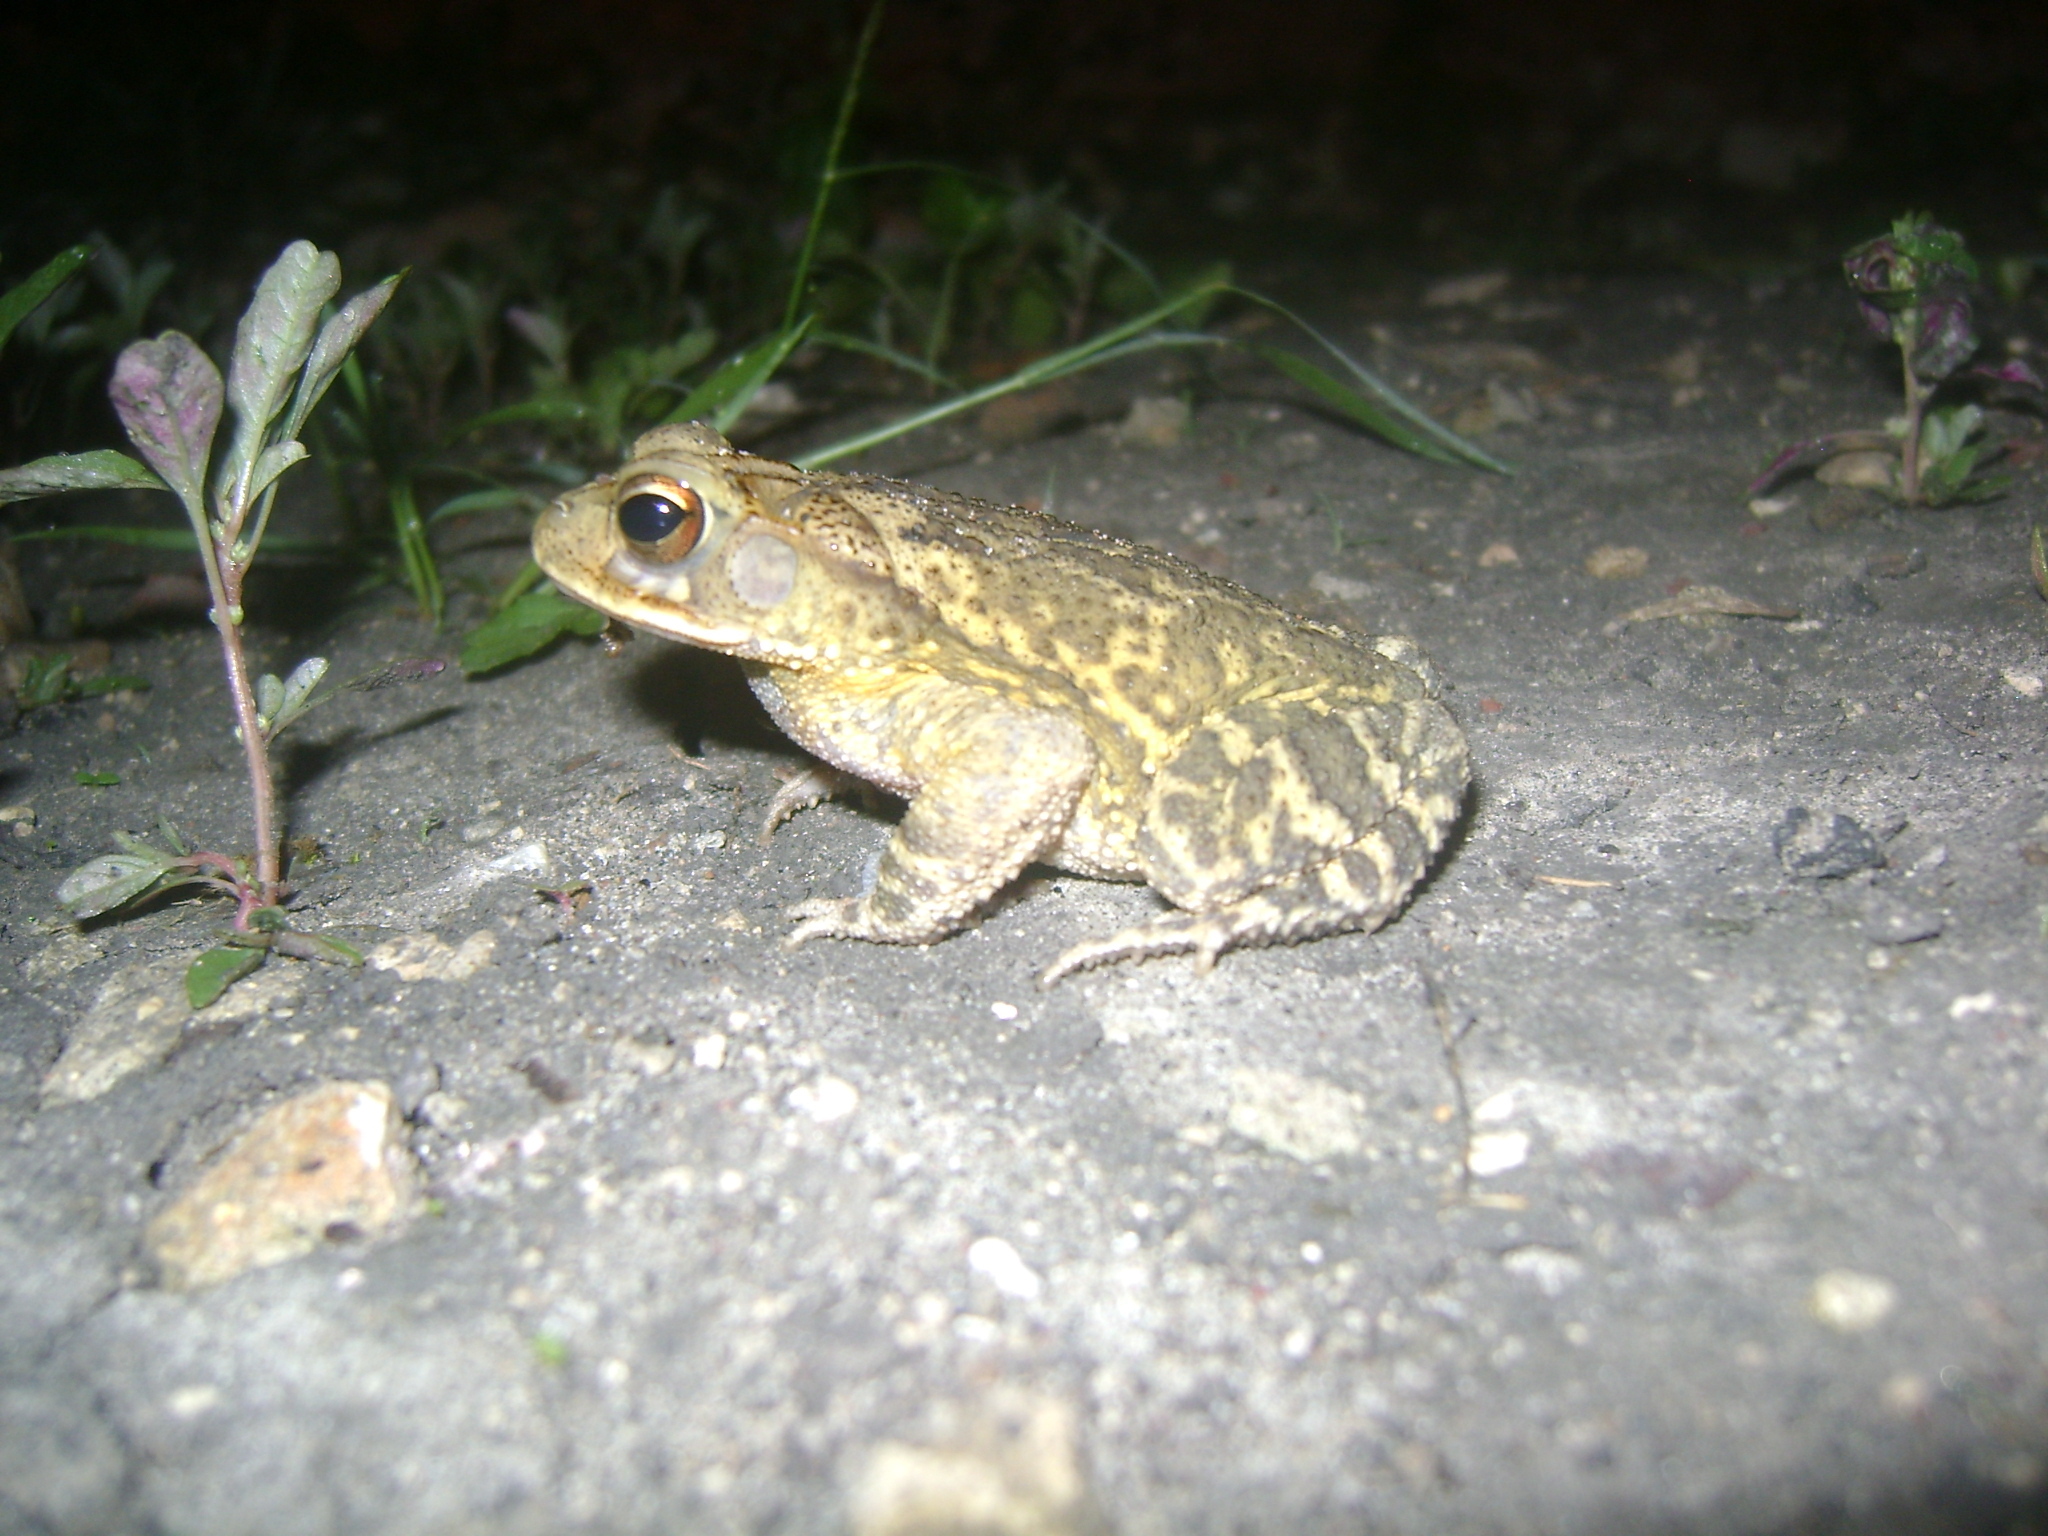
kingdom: Animalia
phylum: Chordata
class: Amphibia
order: Anura
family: Bufonidae
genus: Incilius
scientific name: Incilius valliceps
